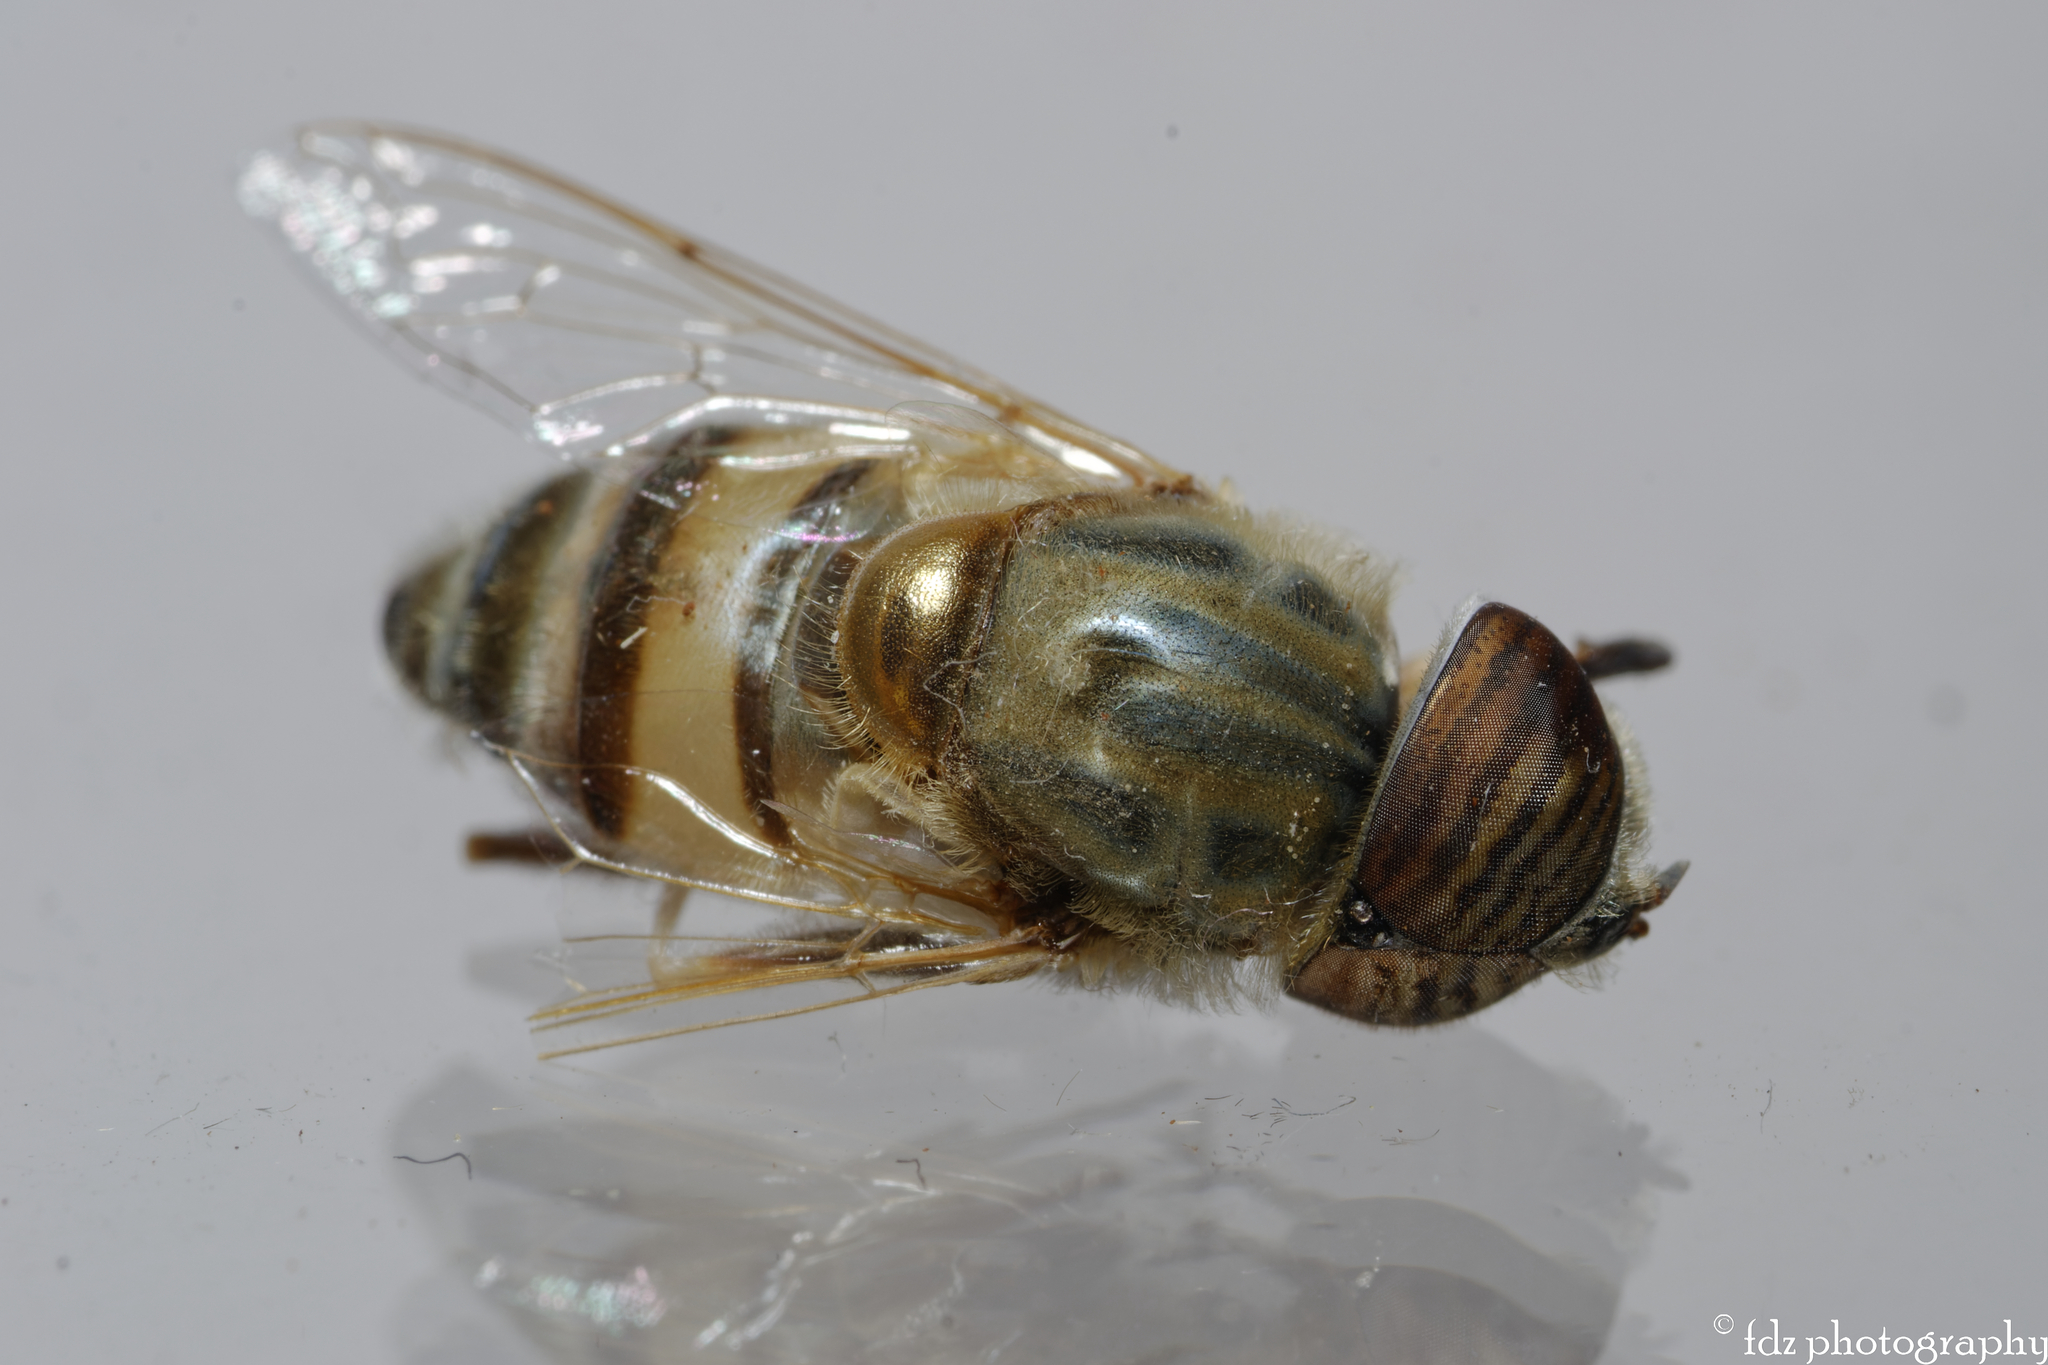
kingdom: Animalia
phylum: Arthropoda
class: Insecta
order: Diptera
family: Syrphidae
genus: Eristalinus
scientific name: Eristalinus taeniops
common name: Syrphid fly
